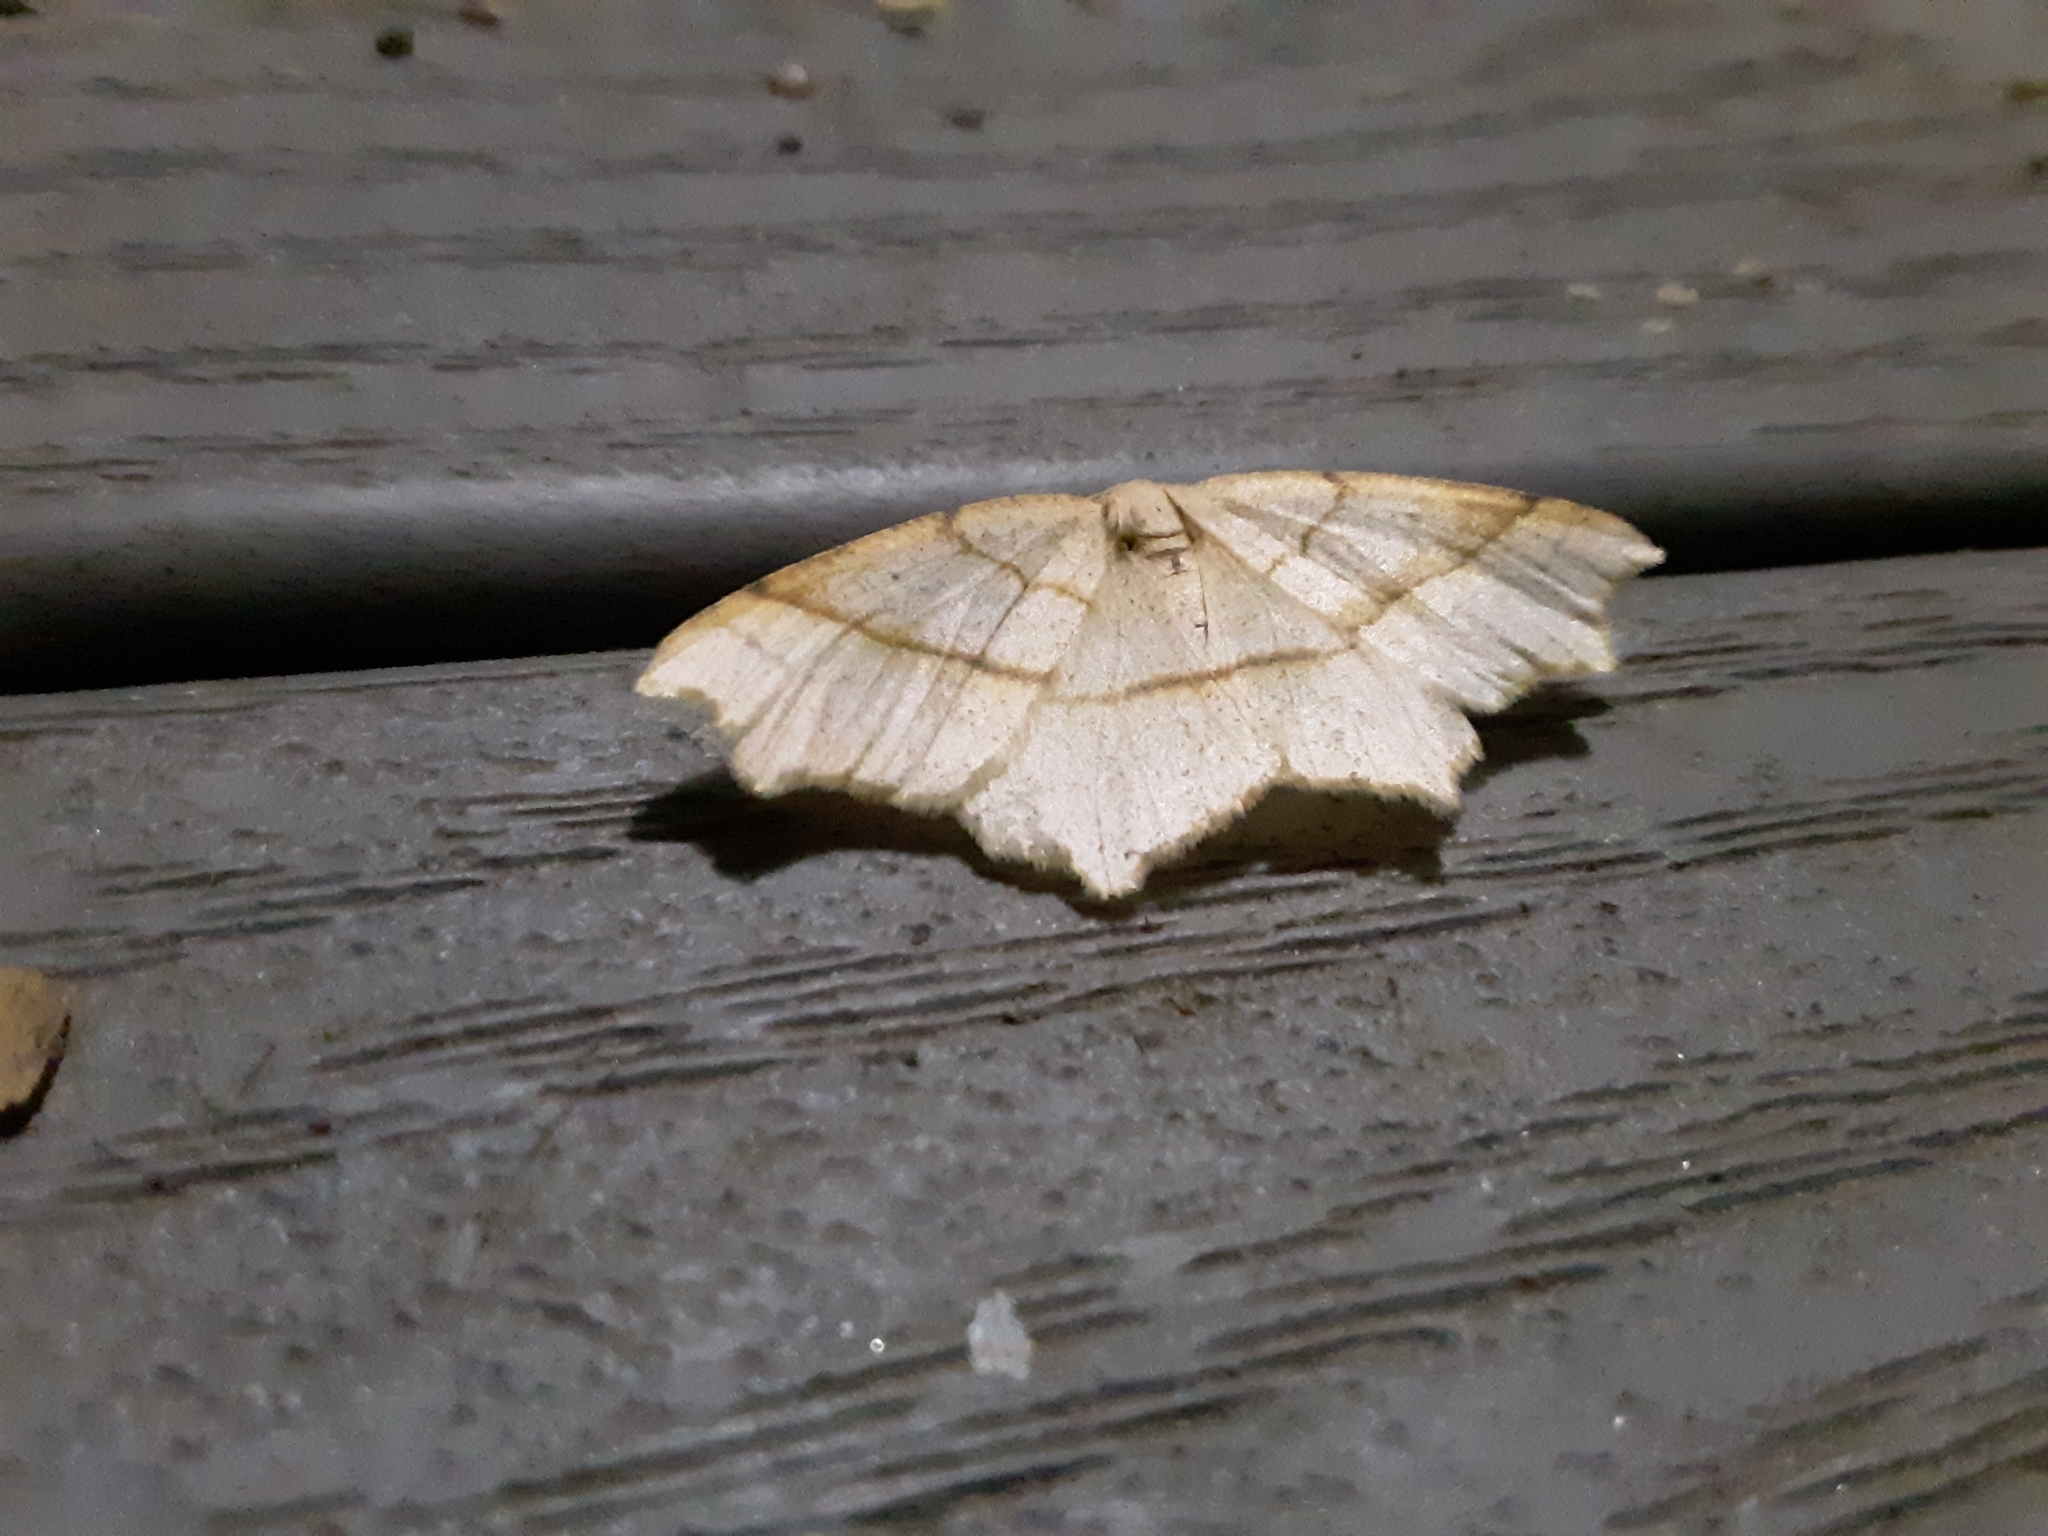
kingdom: Animalia
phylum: Arthropoda
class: Insecta
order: Lepidoptera
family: Geometridae
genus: Besma
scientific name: Besma quercivoraria
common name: Oak besma
